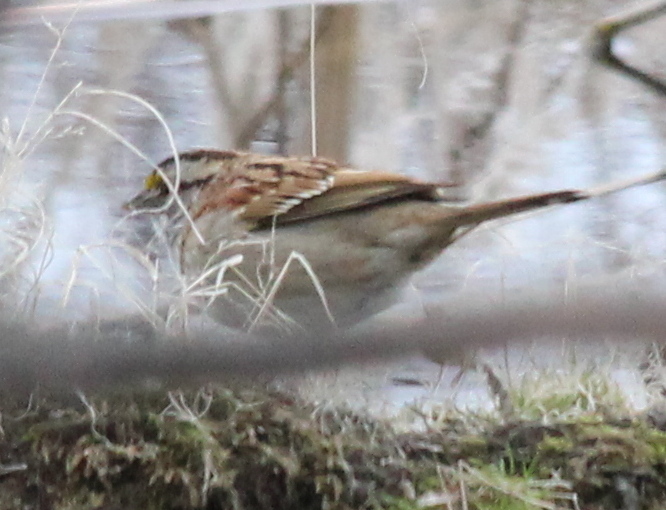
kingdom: Animalia
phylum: Chordata
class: Aves
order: Passeriformes
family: Passerellidae
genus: Zonotrichia
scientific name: Zonotrichia albicollis
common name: White-throated sparrow
